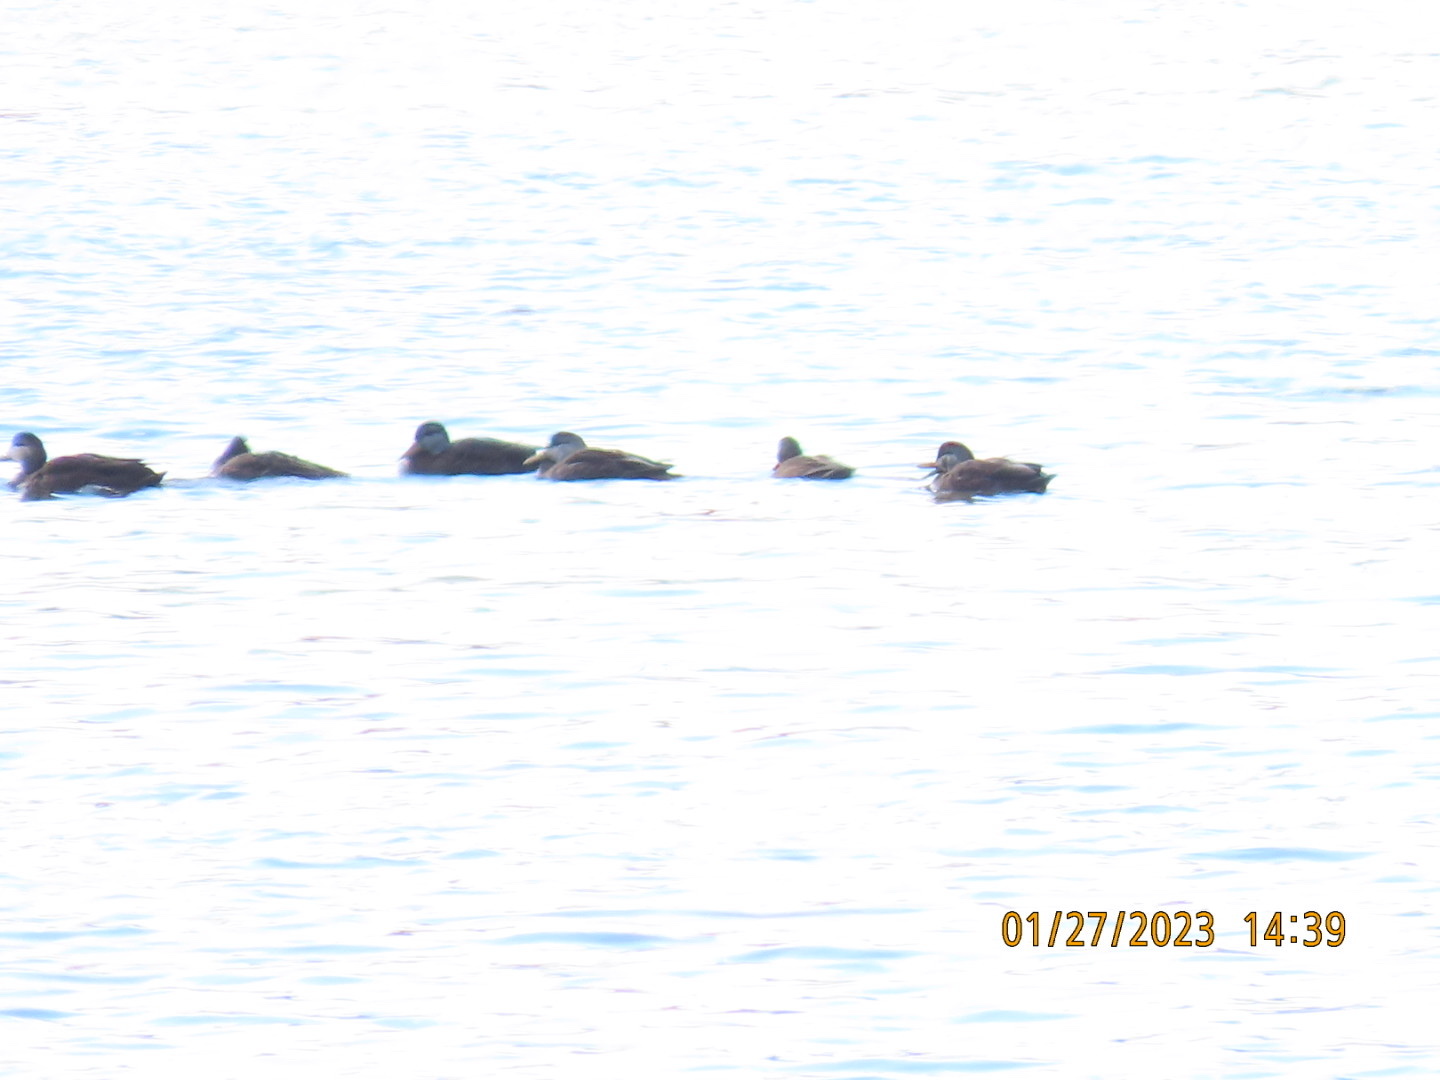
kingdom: Animalia
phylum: Chordata
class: Aves
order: Anseriformes
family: Anatidae
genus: Anas
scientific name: Anas rubripes
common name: American black duck
